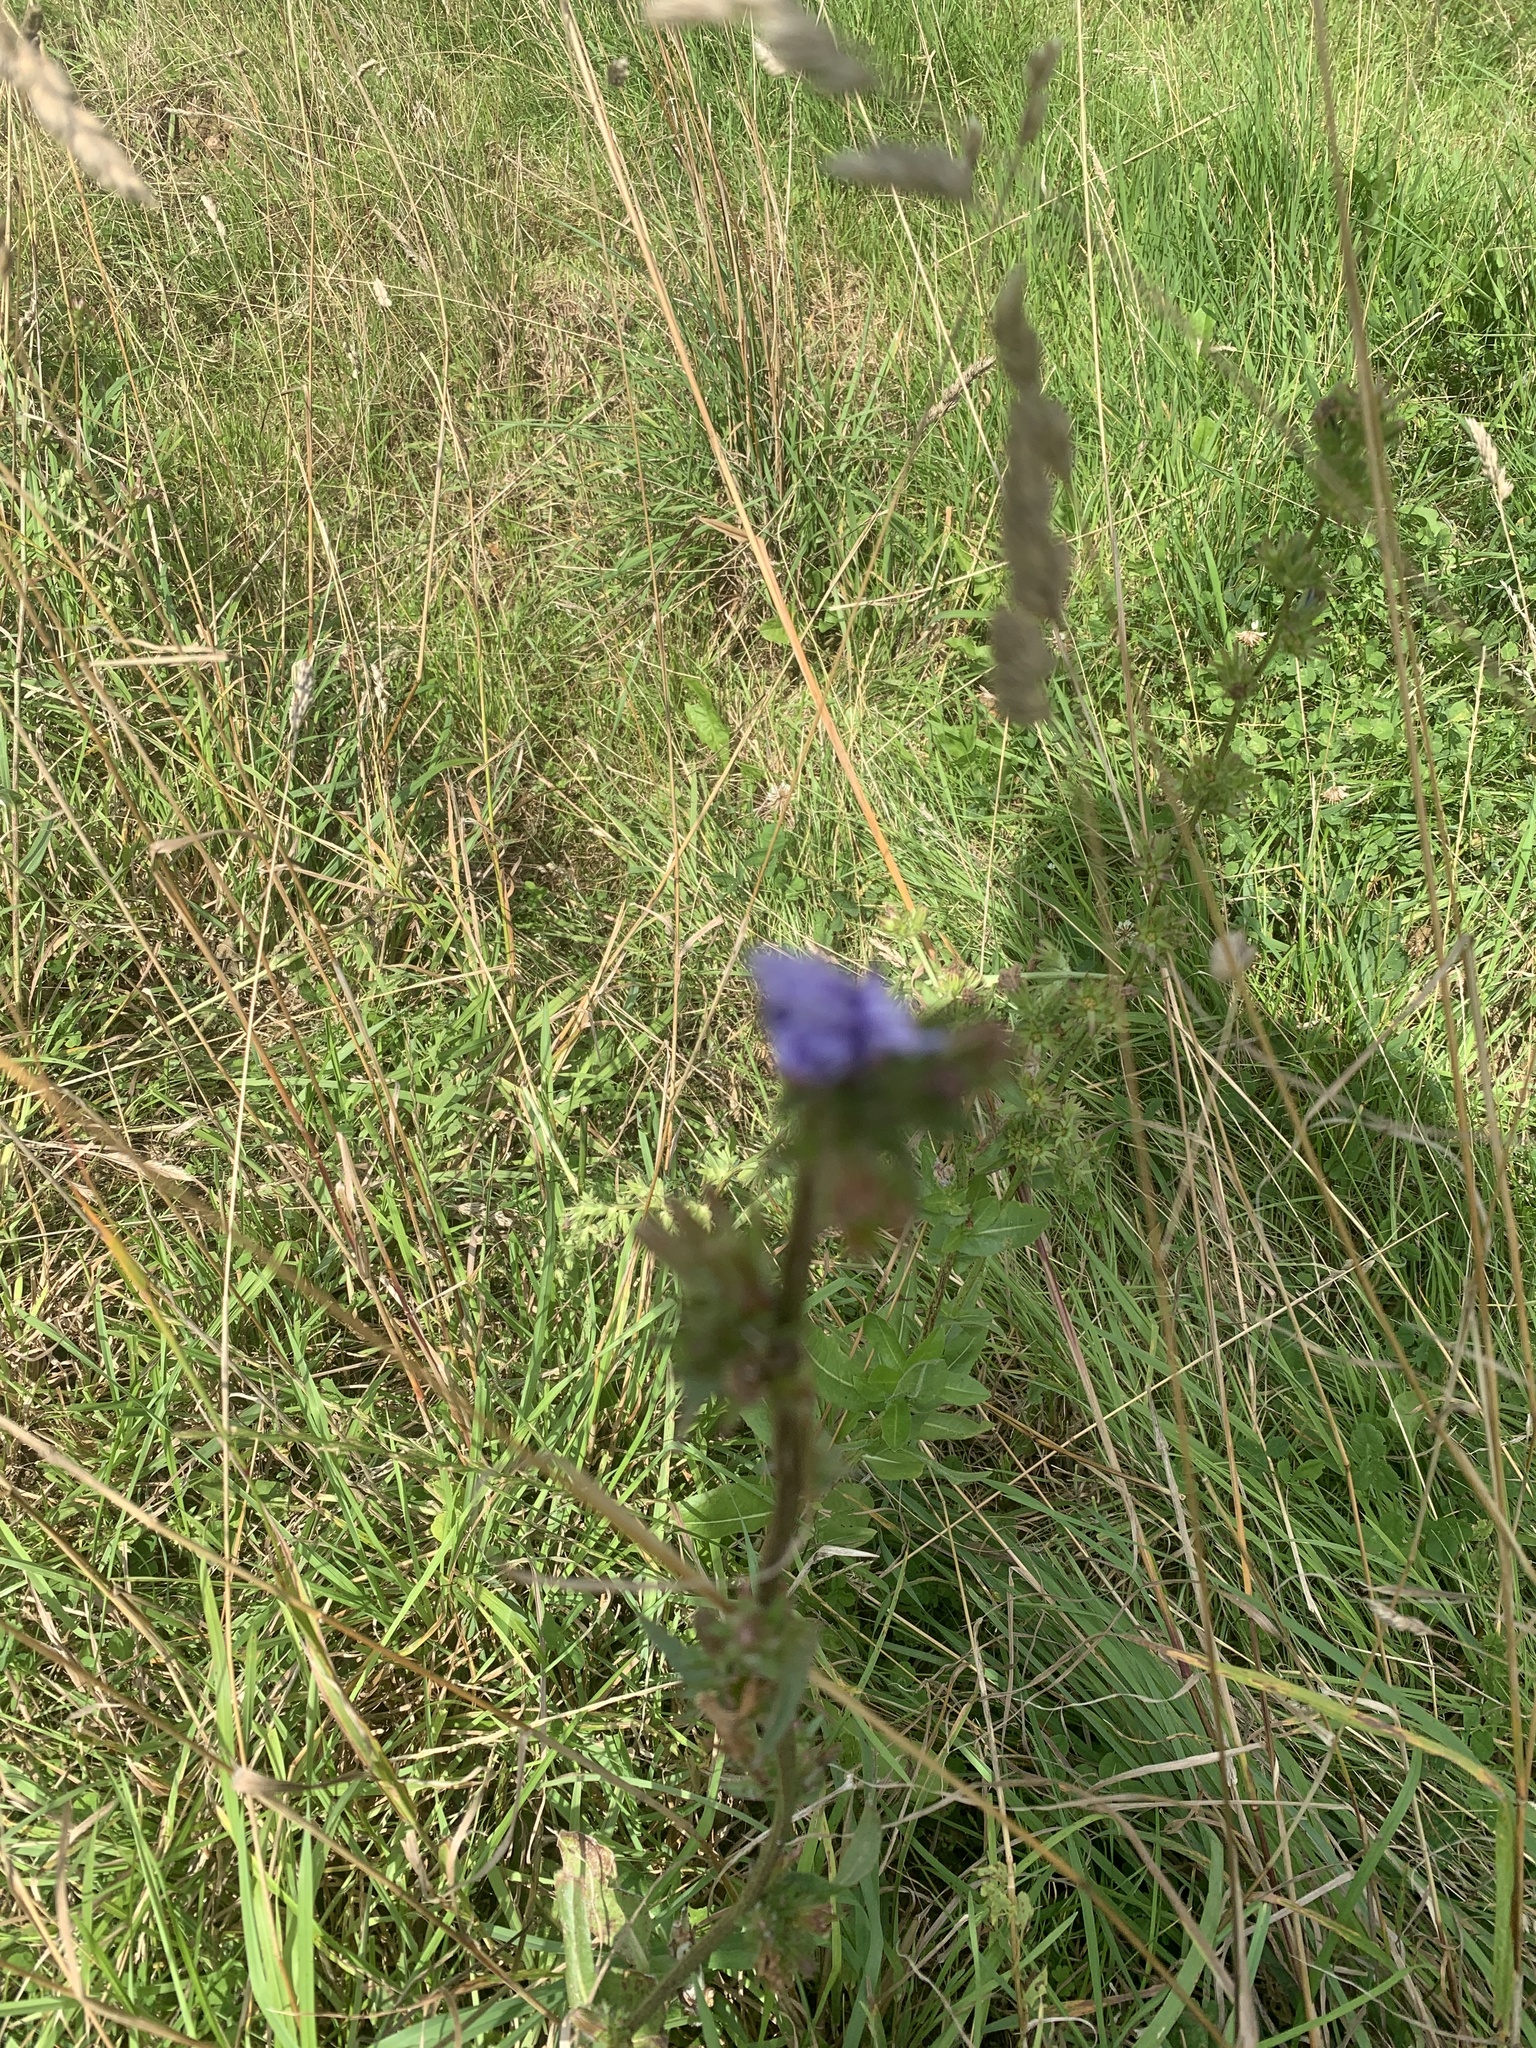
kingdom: Plantae
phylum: Tracheophyta
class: Magnoliopsida
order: Boraginales
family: Hydrophyllaceae
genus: Phacelia
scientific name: Phacelia tanacetifolia
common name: Phacelia
